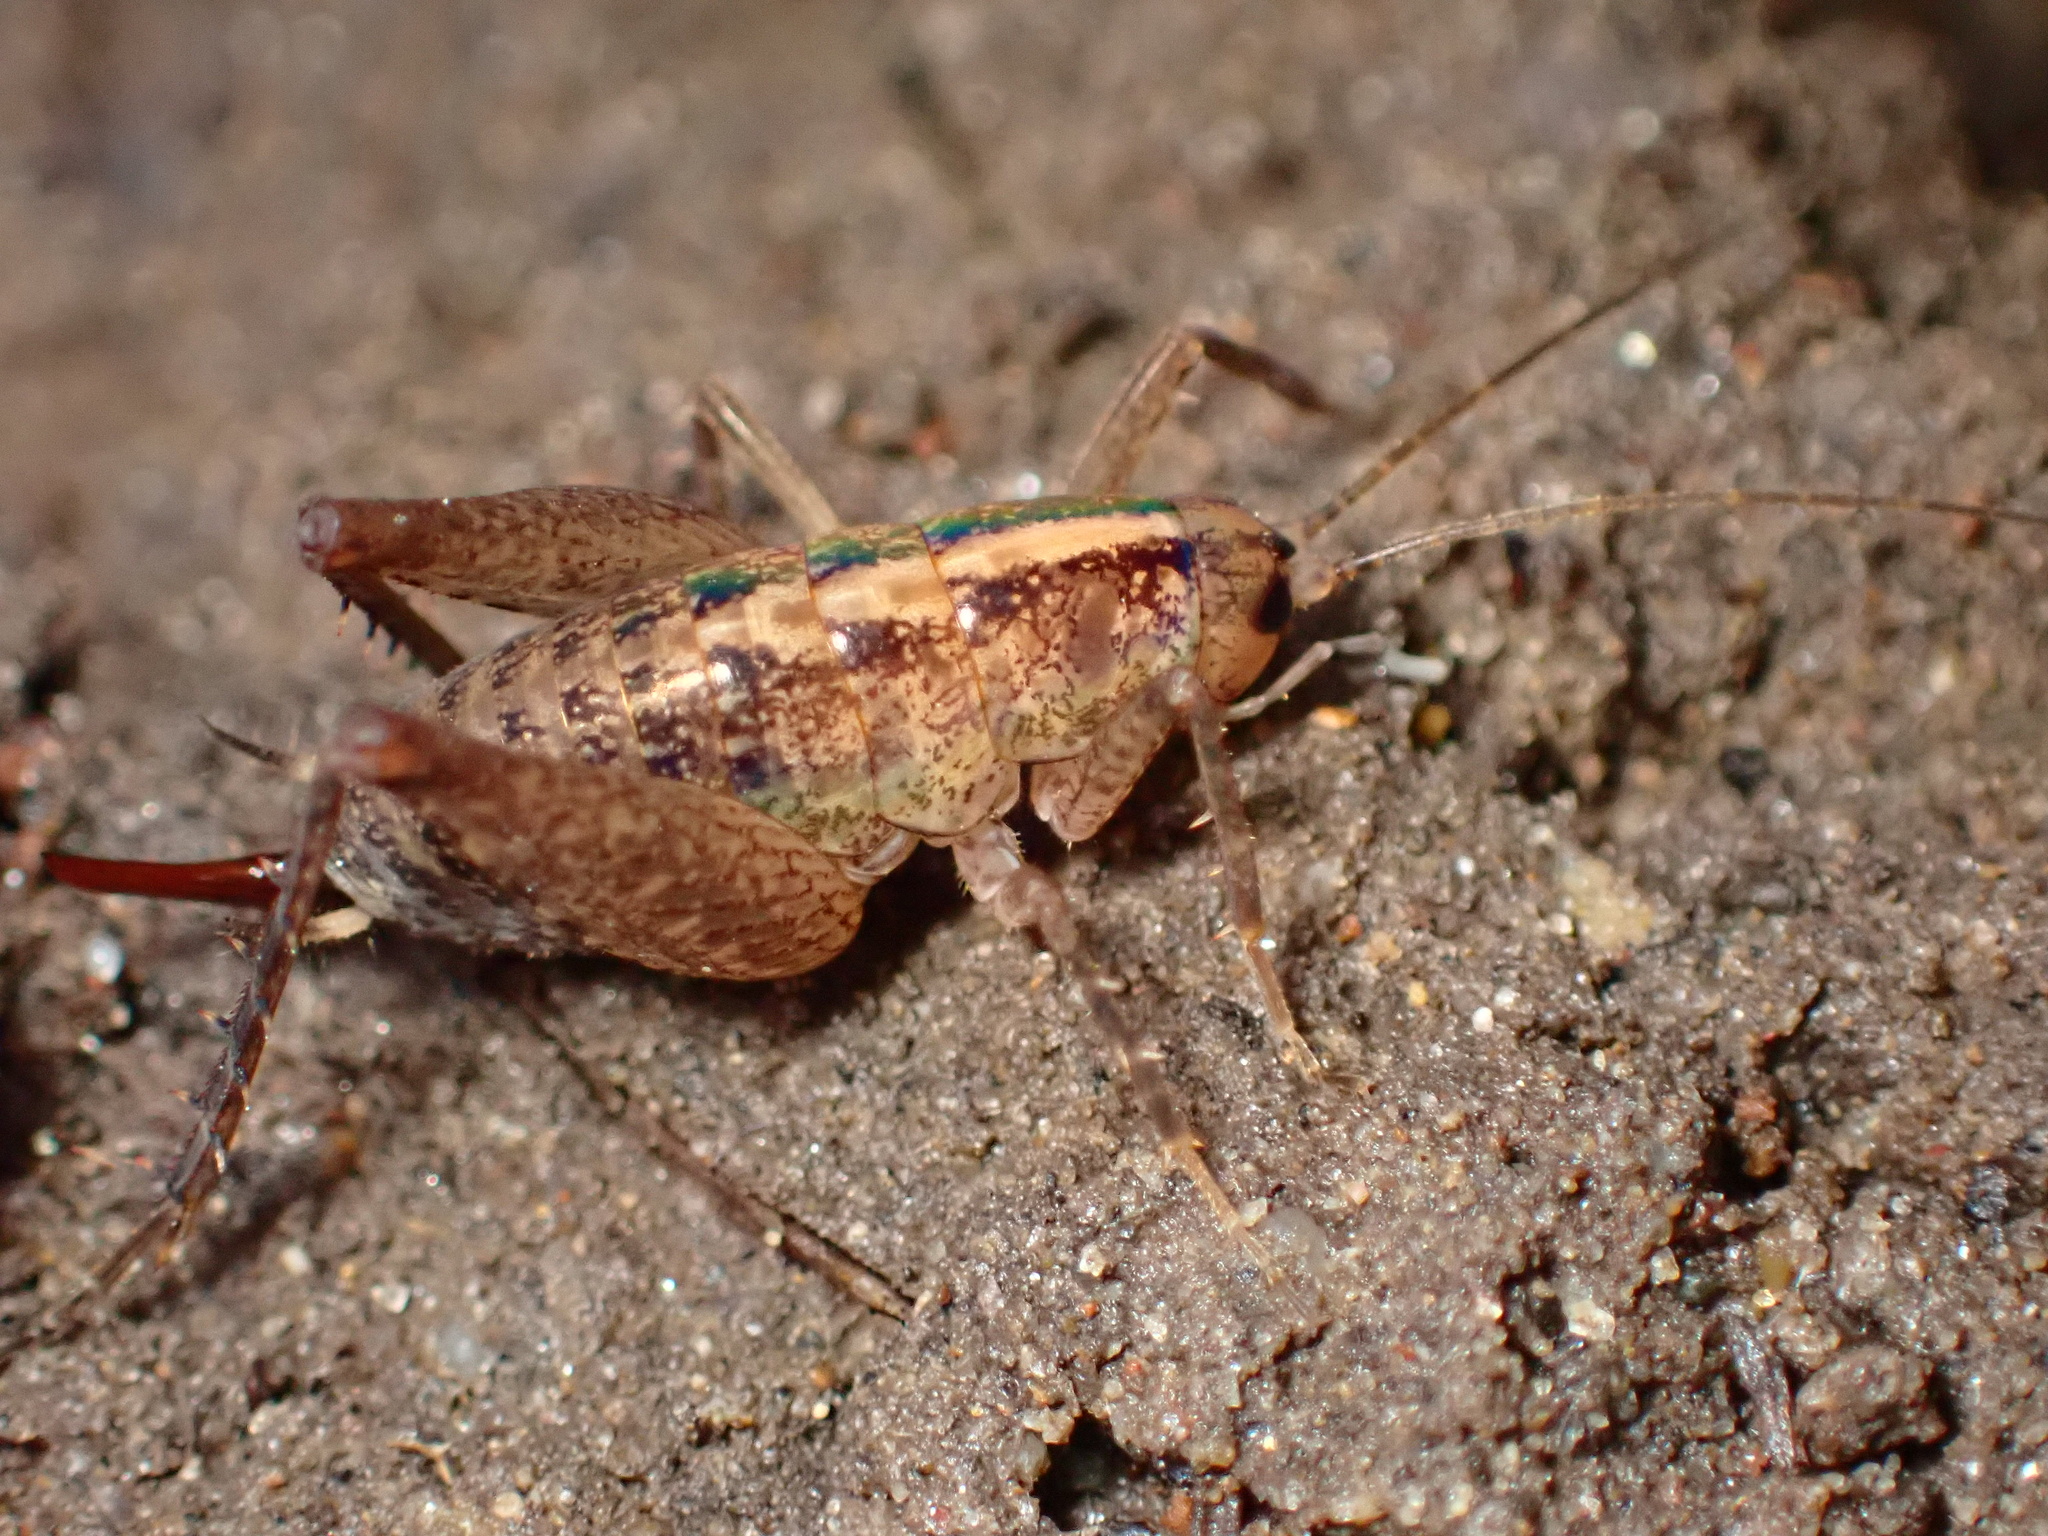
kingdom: Animalia
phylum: Arthropoda
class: Insecta
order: Orthoptera
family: Rhaphidophoridae
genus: Pristoceuthophilus
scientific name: Pristoceuthophilus
